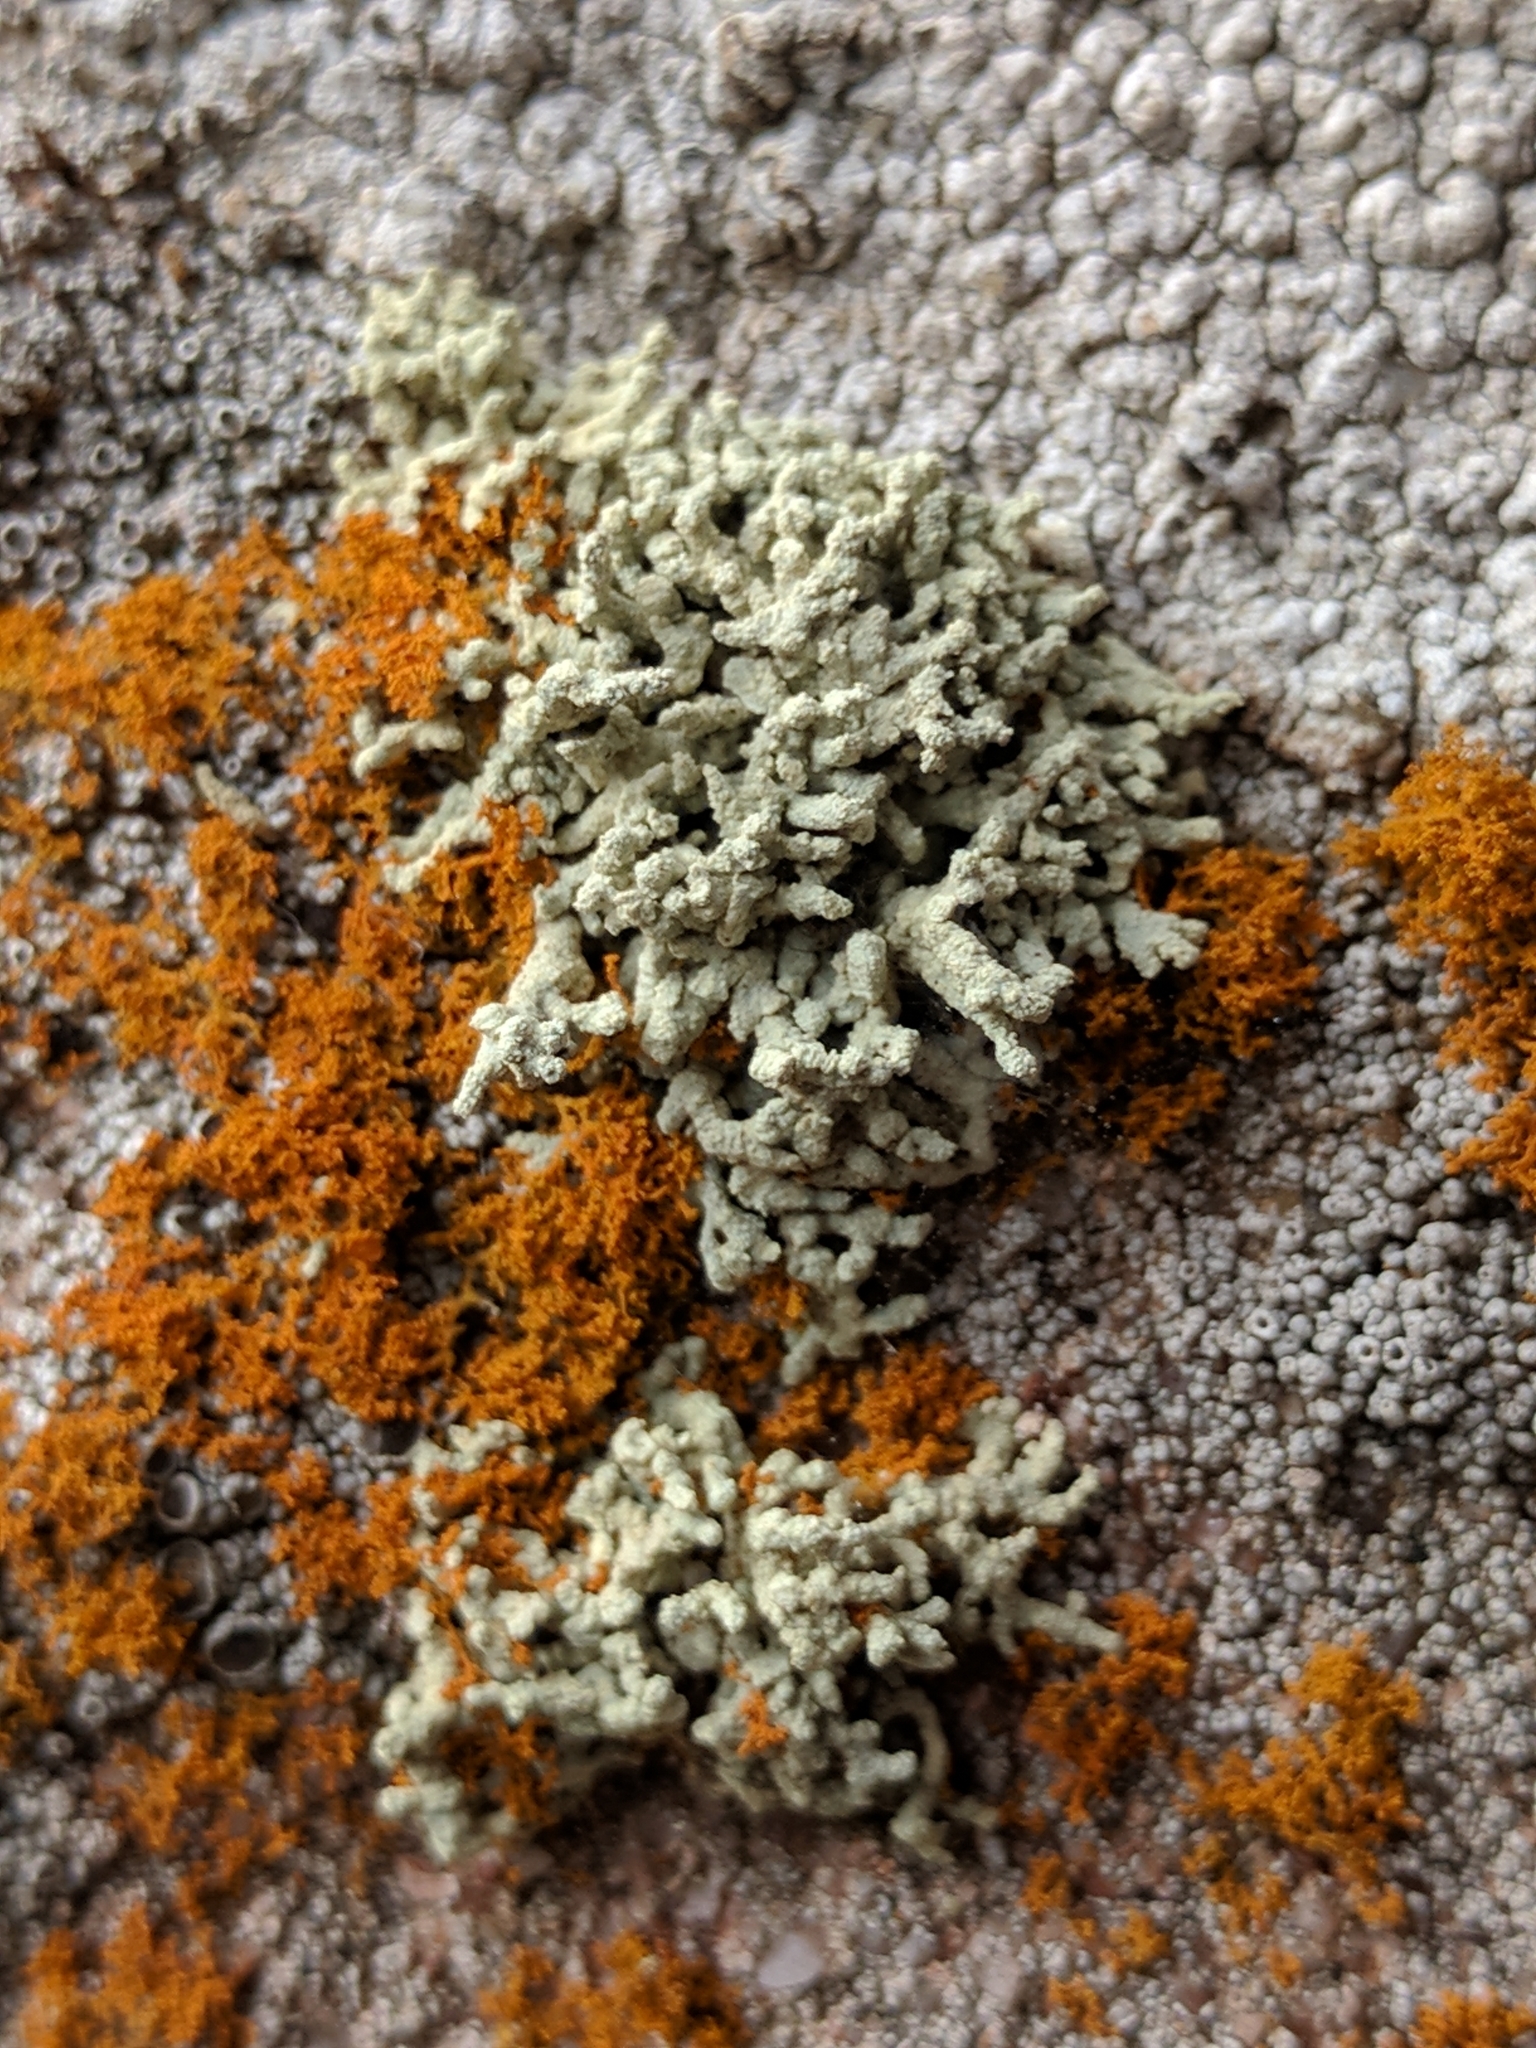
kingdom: Fungi
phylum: Ascomycota
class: Lecanoromycetes
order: Teloschistales
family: Teloschistaceae
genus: Polycauliona
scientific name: Polycauliona phryganitis
